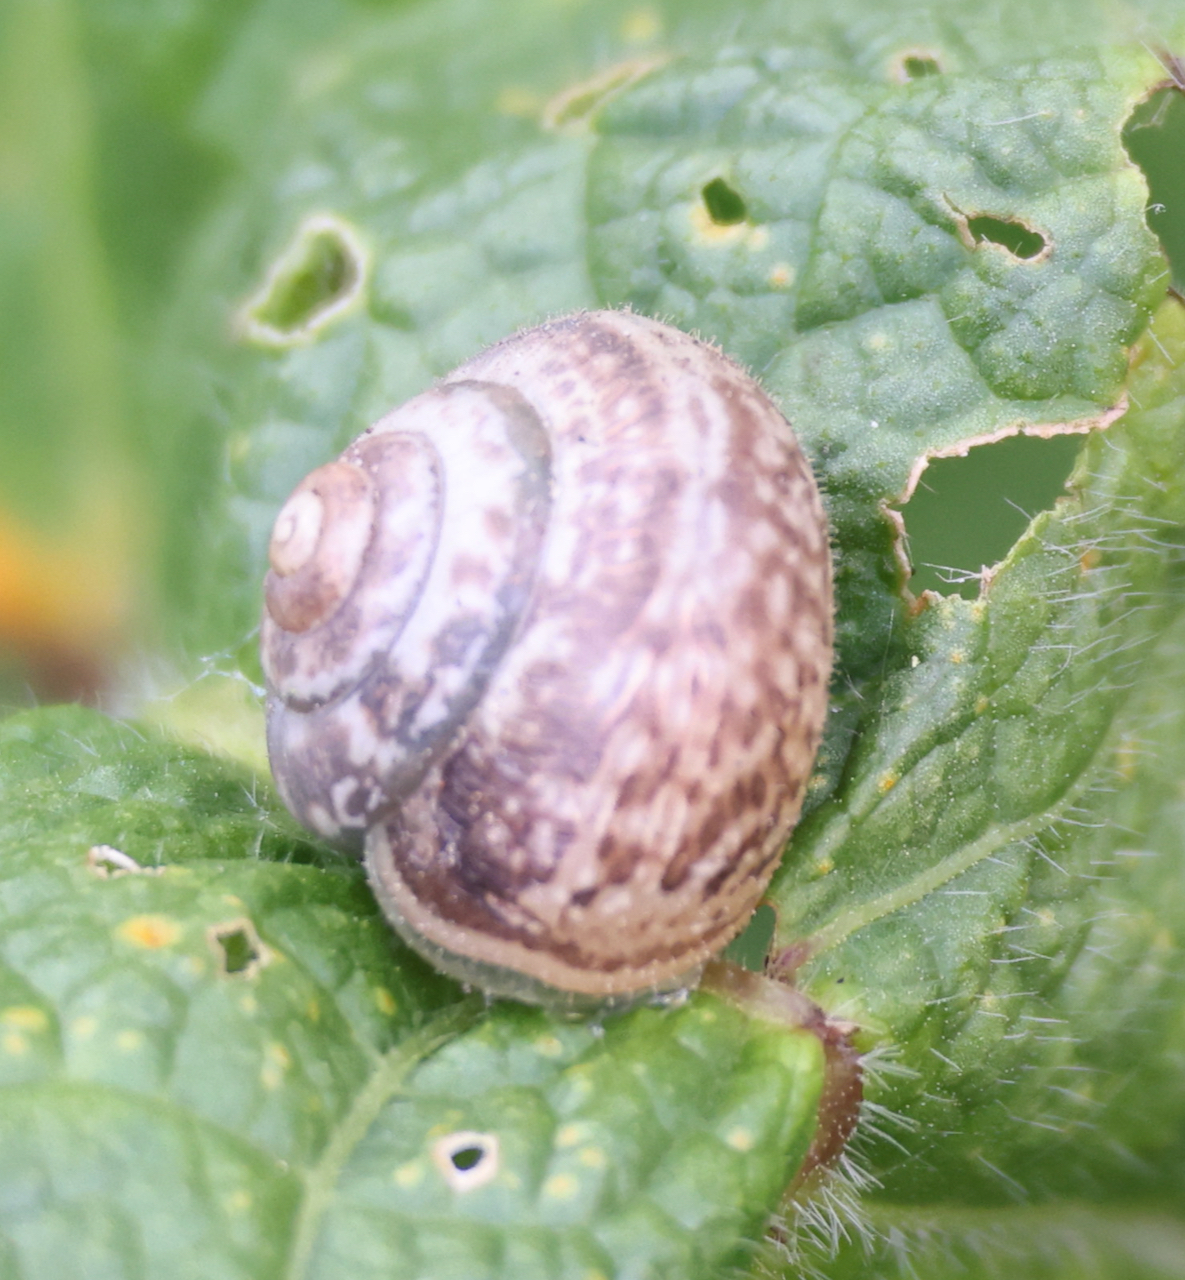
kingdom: Animalia
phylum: Mollusca
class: Gastropoda
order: Stylommatophora
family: Hygromiidae
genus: Monacha
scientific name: Monacha cantiana
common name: Kentish snail
